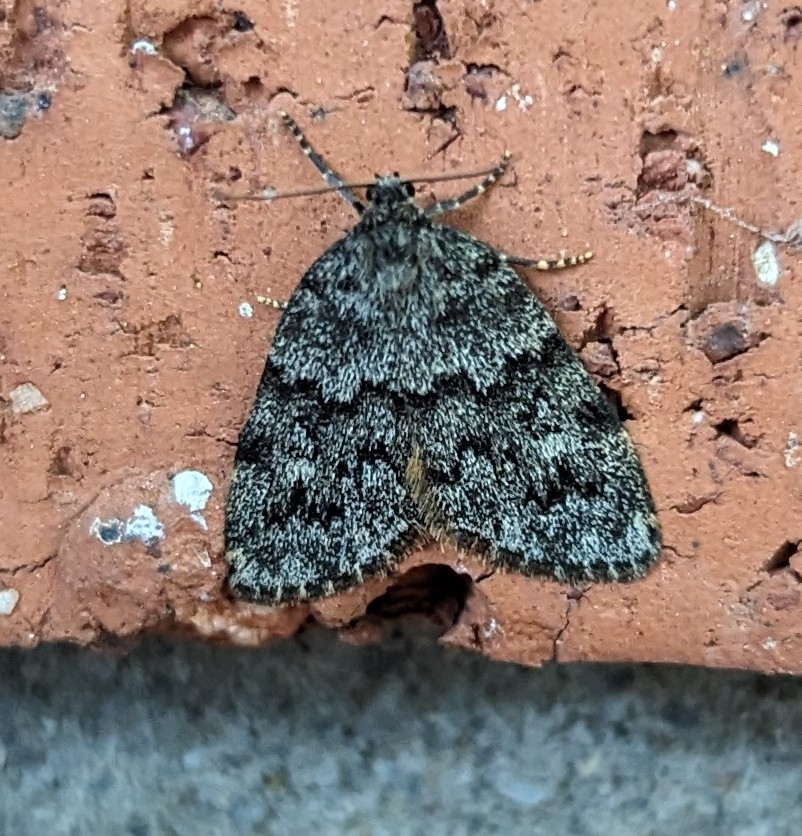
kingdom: Animalia
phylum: Arthropoda
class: Insecta
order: Lepidoptera
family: Erebidae
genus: Halone
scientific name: Halone consolatrix
